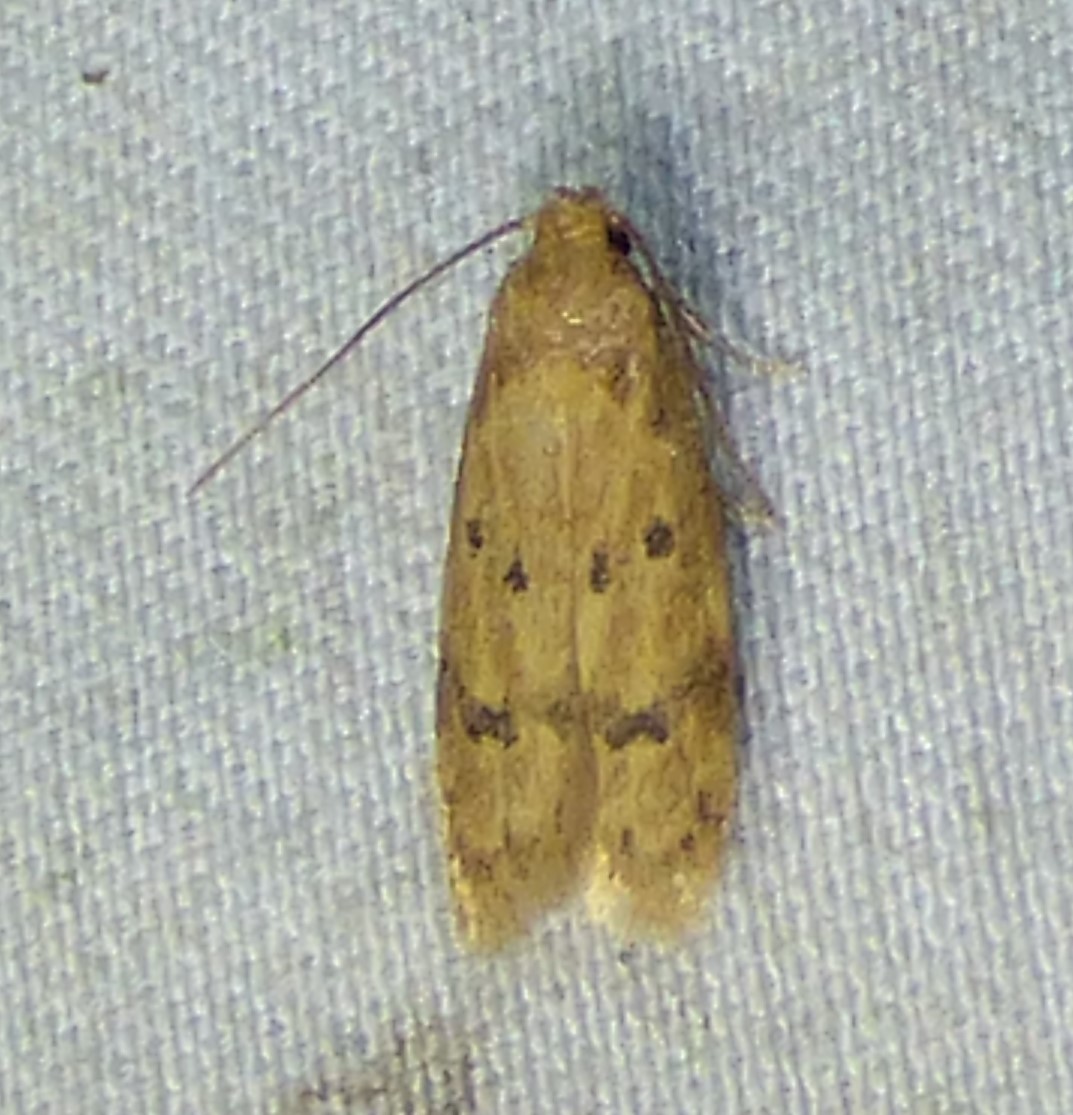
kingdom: Animalia
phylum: Arthropoda
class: Insecta
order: Lepidoptera
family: Autostichidae
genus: Gerdana
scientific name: Gerdana caritella
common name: Gerdana moth
